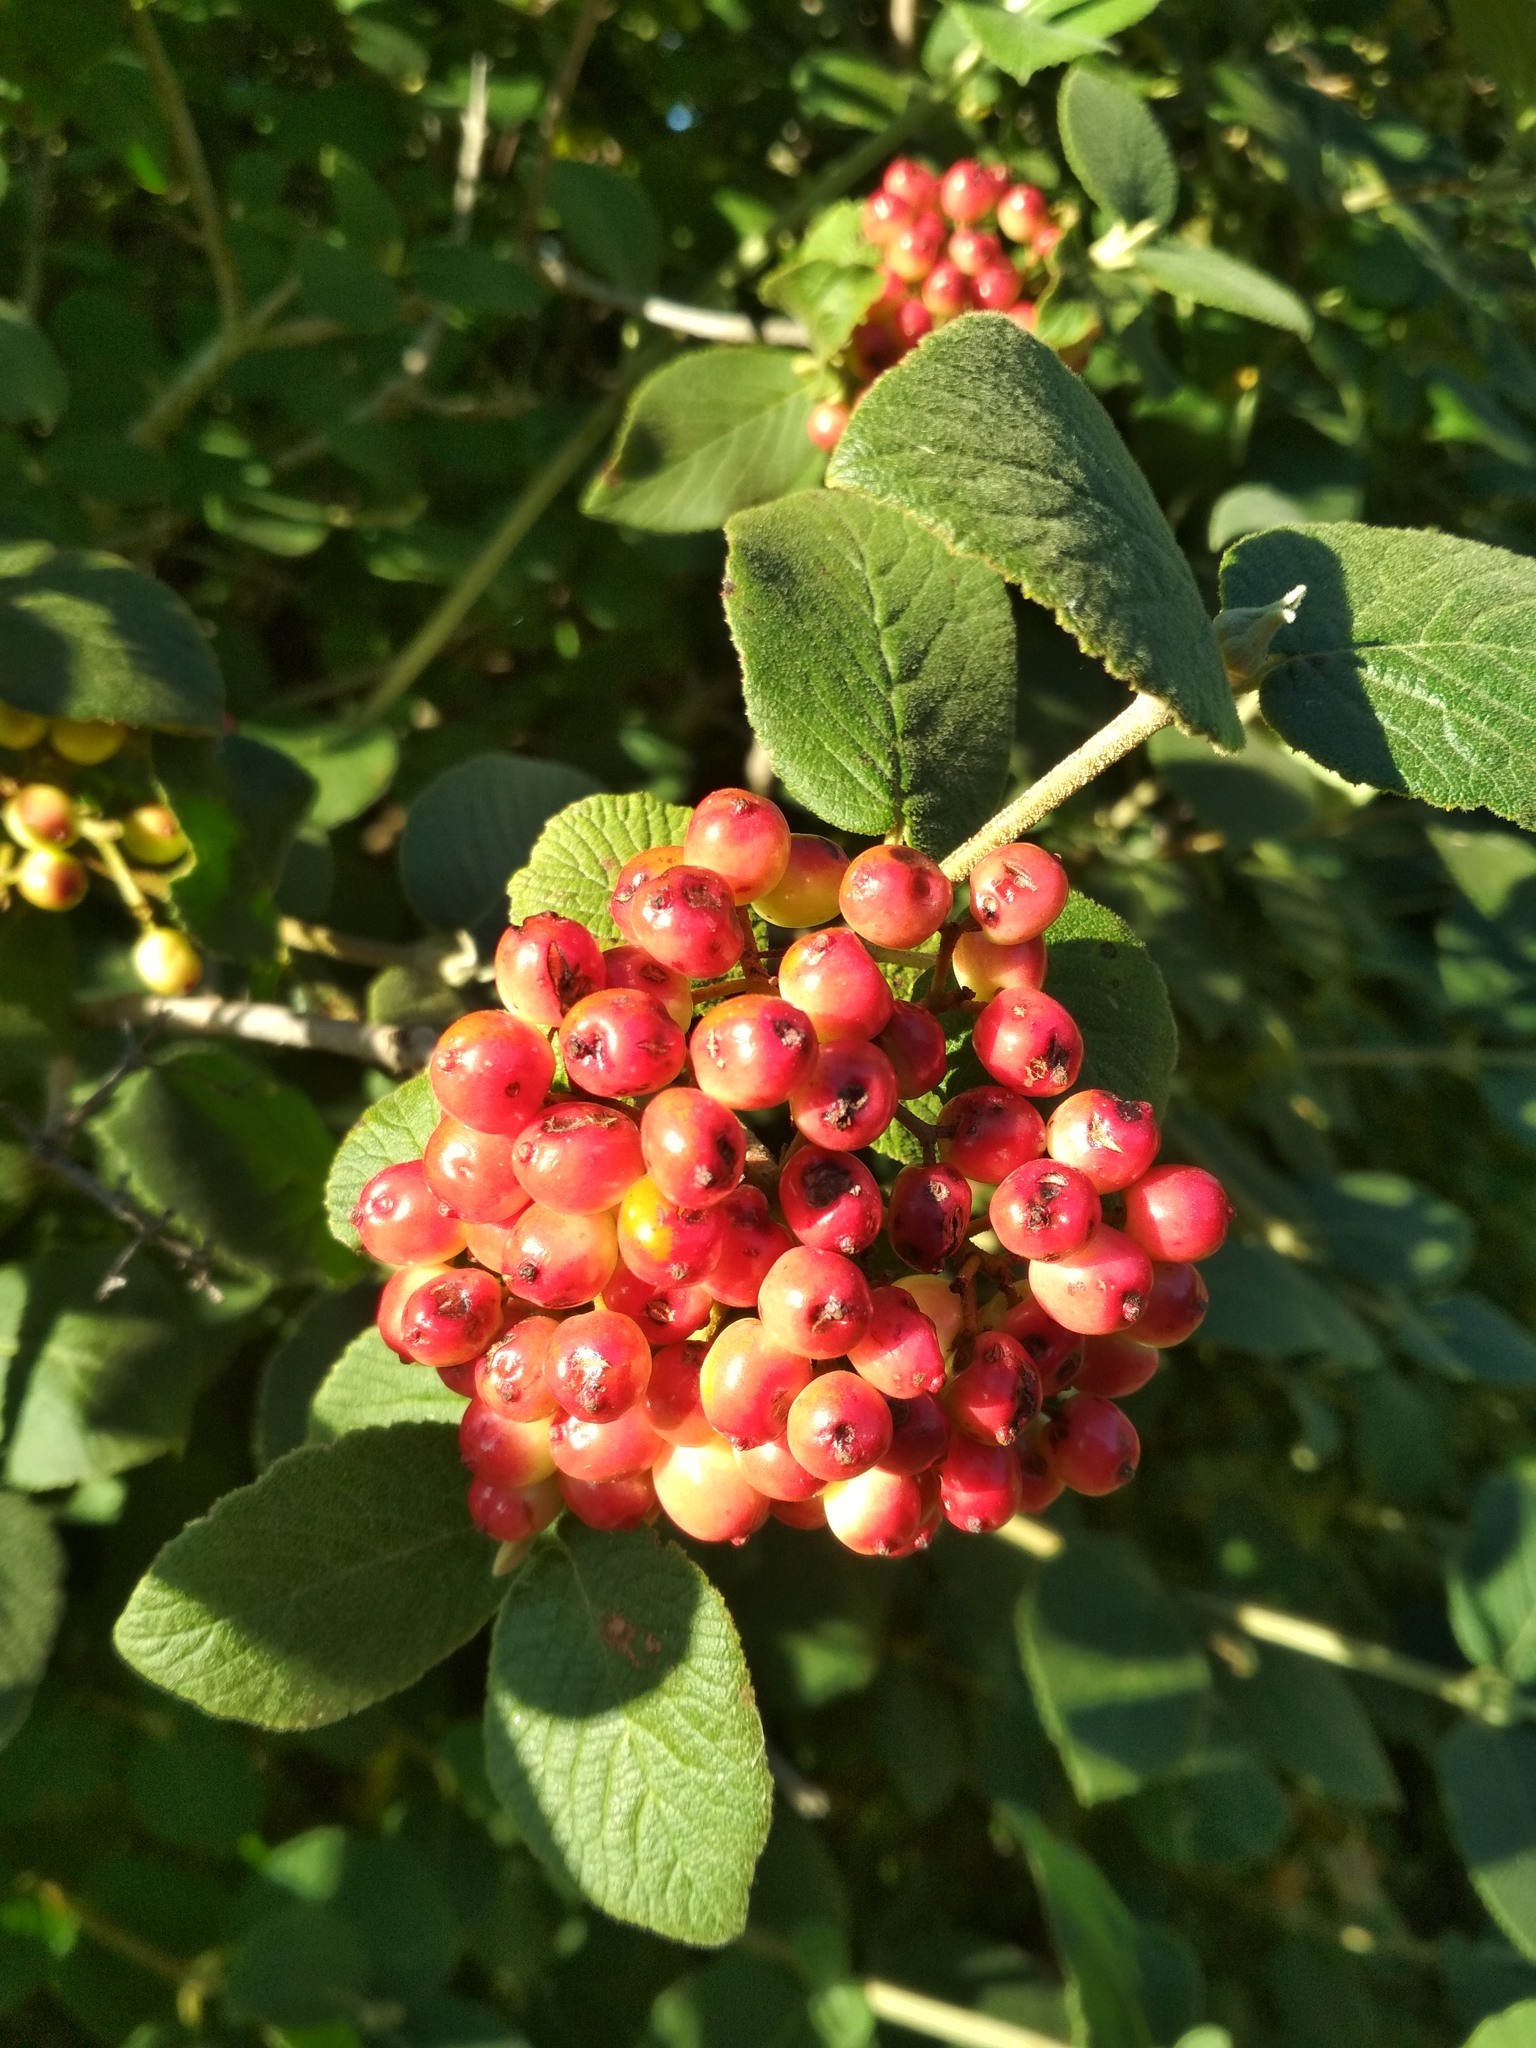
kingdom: Plantae
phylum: Tracheophyta
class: Magnoliopsida
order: Dipsacales
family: Viburnaceae
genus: Viburnum
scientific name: Viburnum lantana
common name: Wayfaring tree
